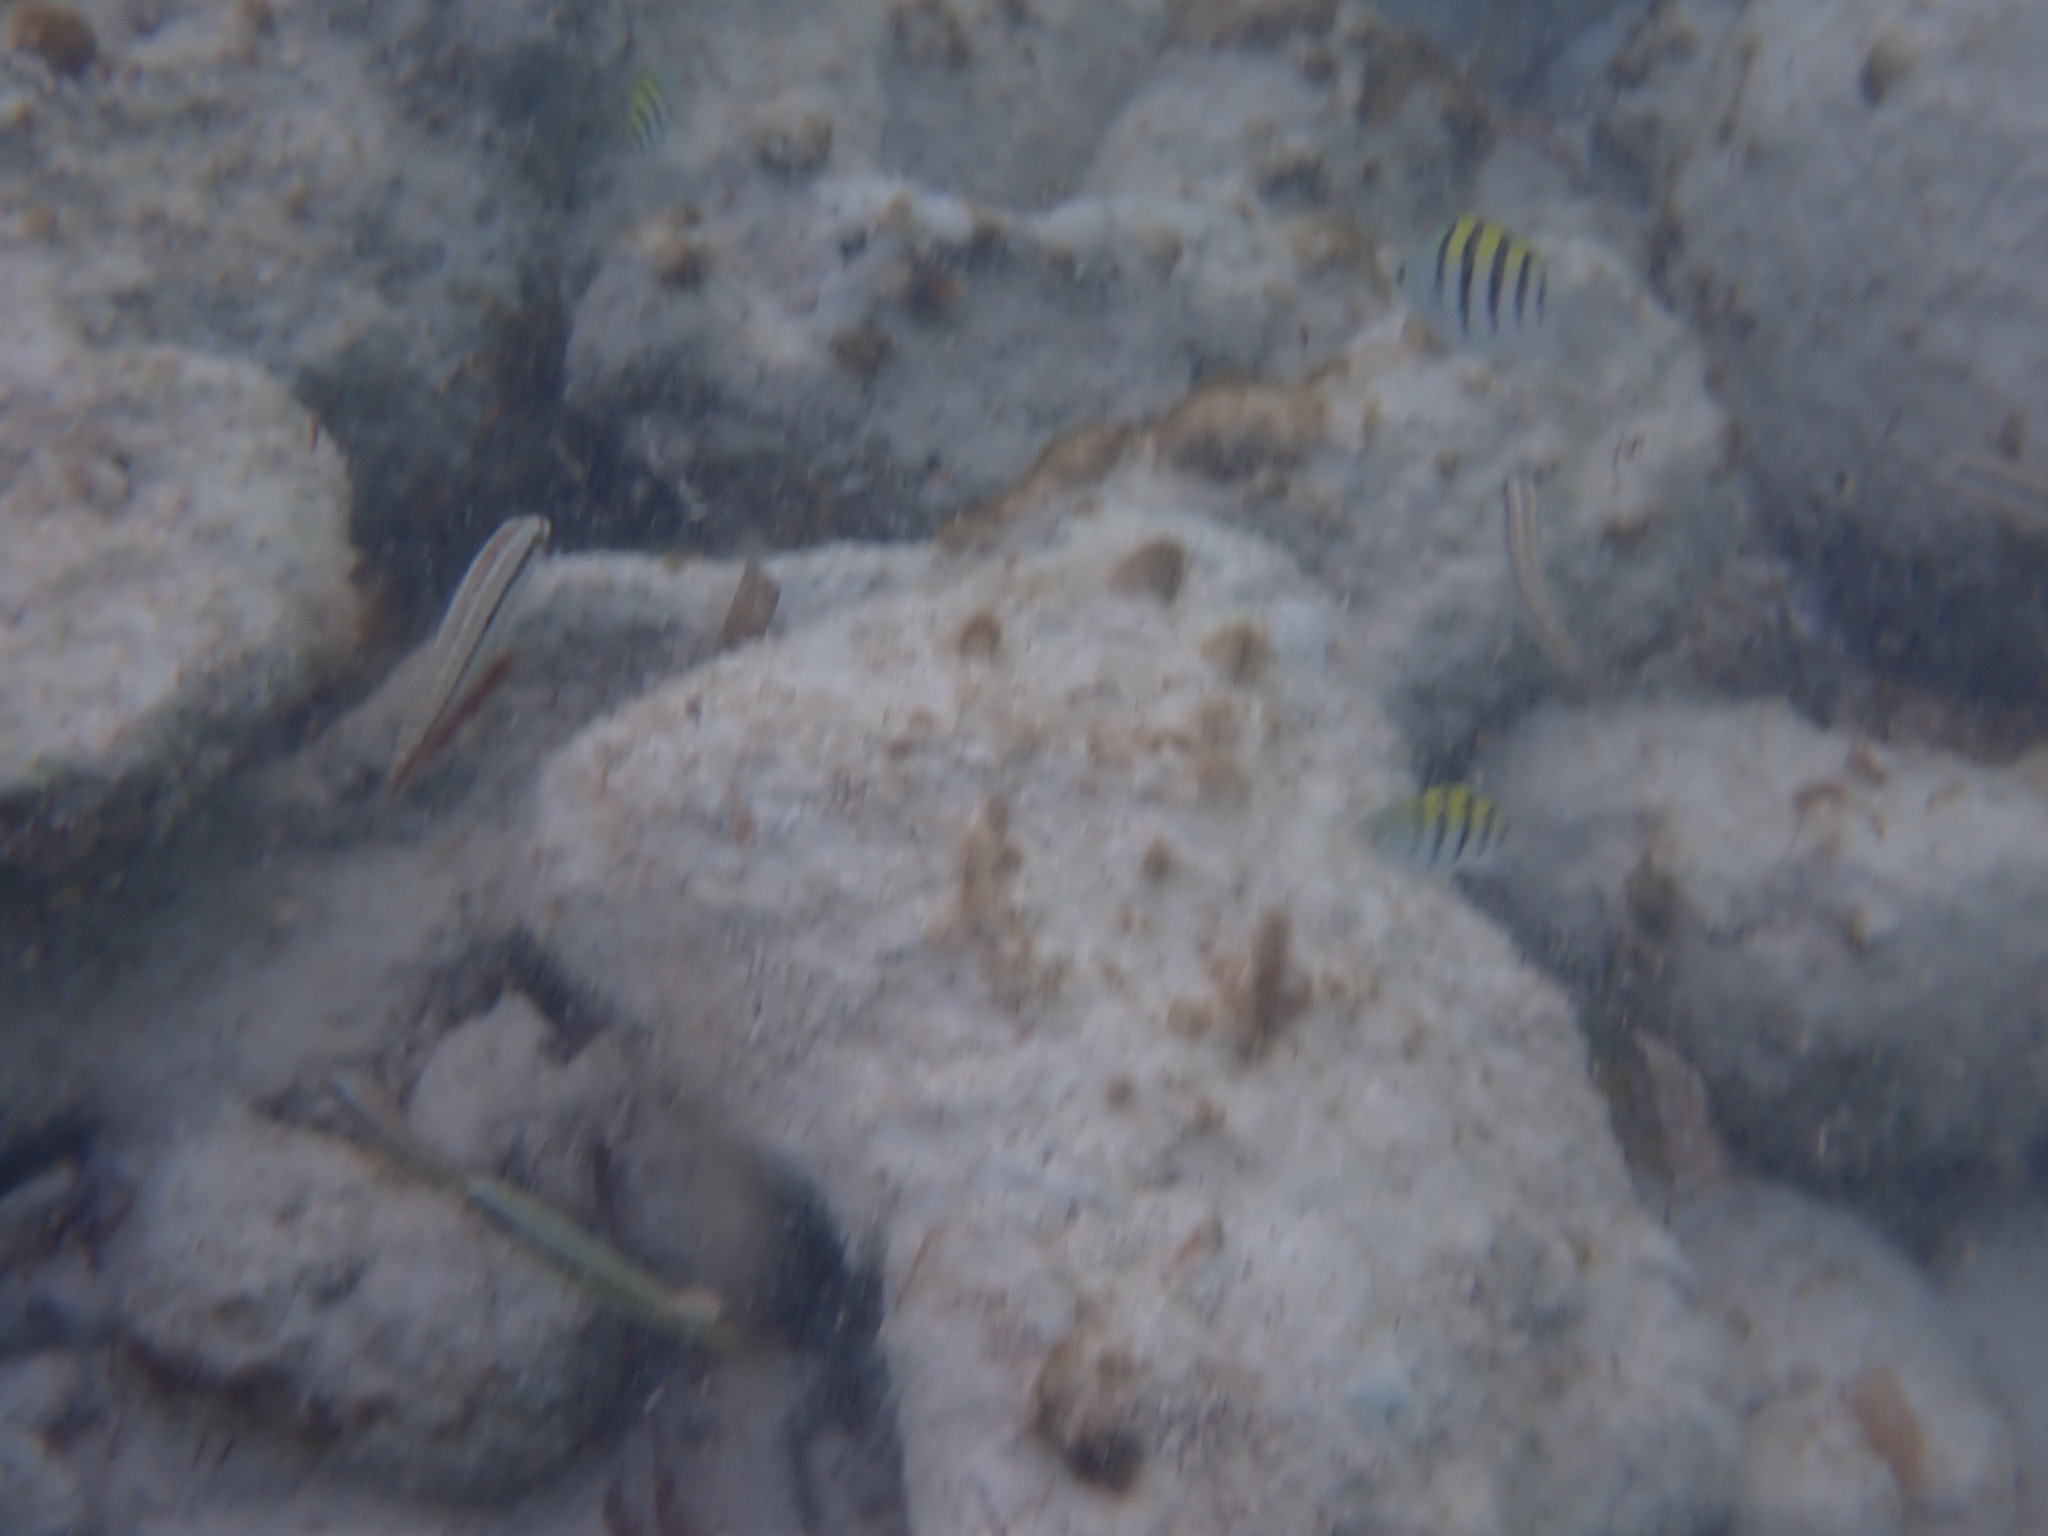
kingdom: Animalia
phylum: Chordata
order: Perciformes
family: Pomacentridae
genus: Abudefduf
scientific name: Abudefduf saxatilis
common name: Sergeant major
